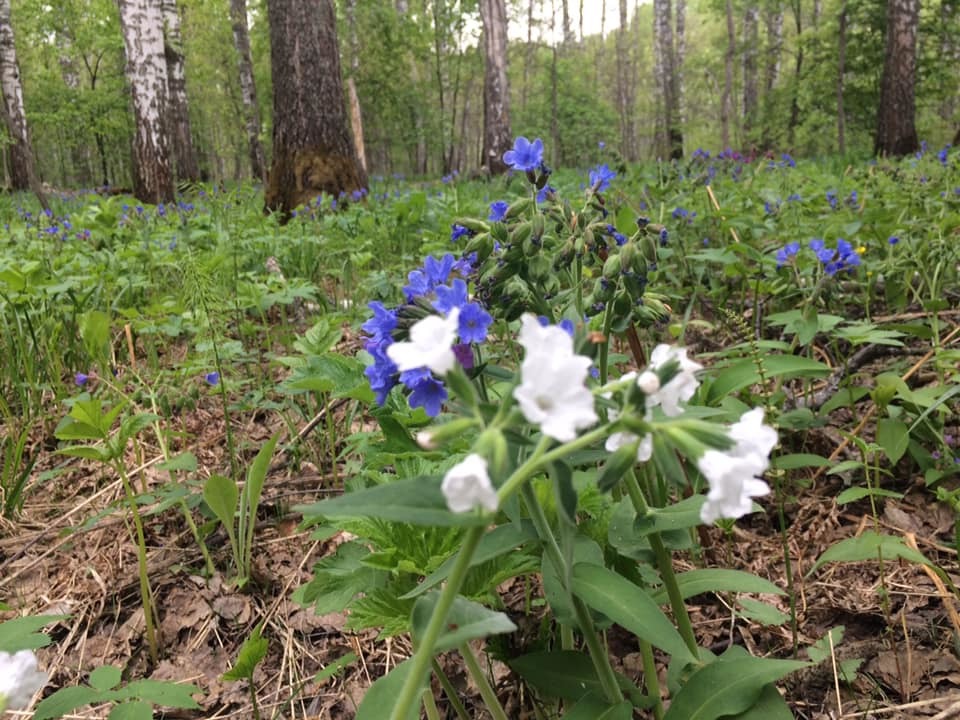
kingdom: Plantae
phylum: Tracheophyta
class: Magnoliopsida
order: Boraginales
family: Boraginaceae
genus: Pulmonaria
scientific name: Pulmonaria mollis
